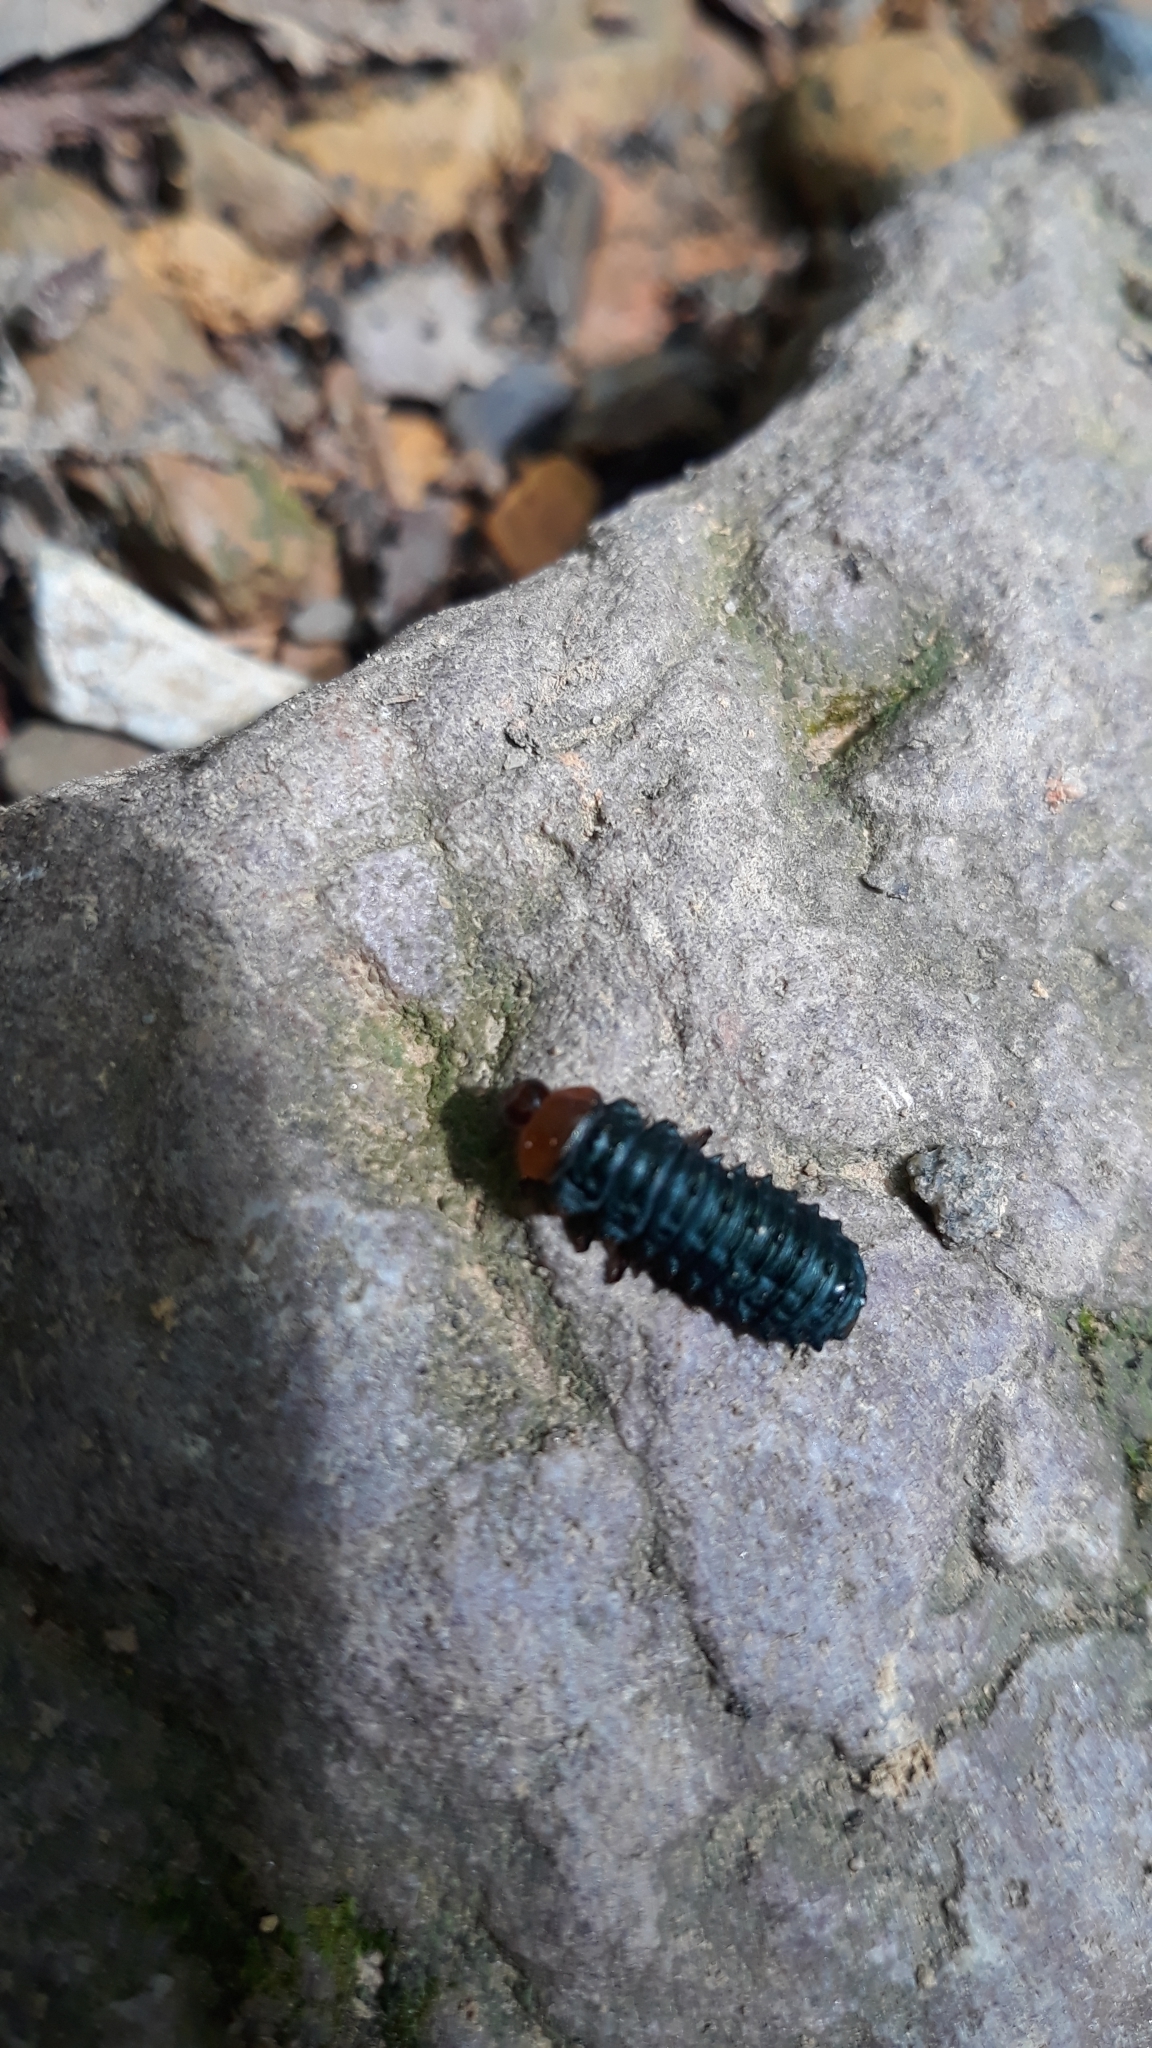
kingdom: Animalia
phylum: Arthropoda
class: Insecta
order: Coleoptera
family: Chrysomelidae
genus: Monocesta
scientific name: Monocesta coryli
